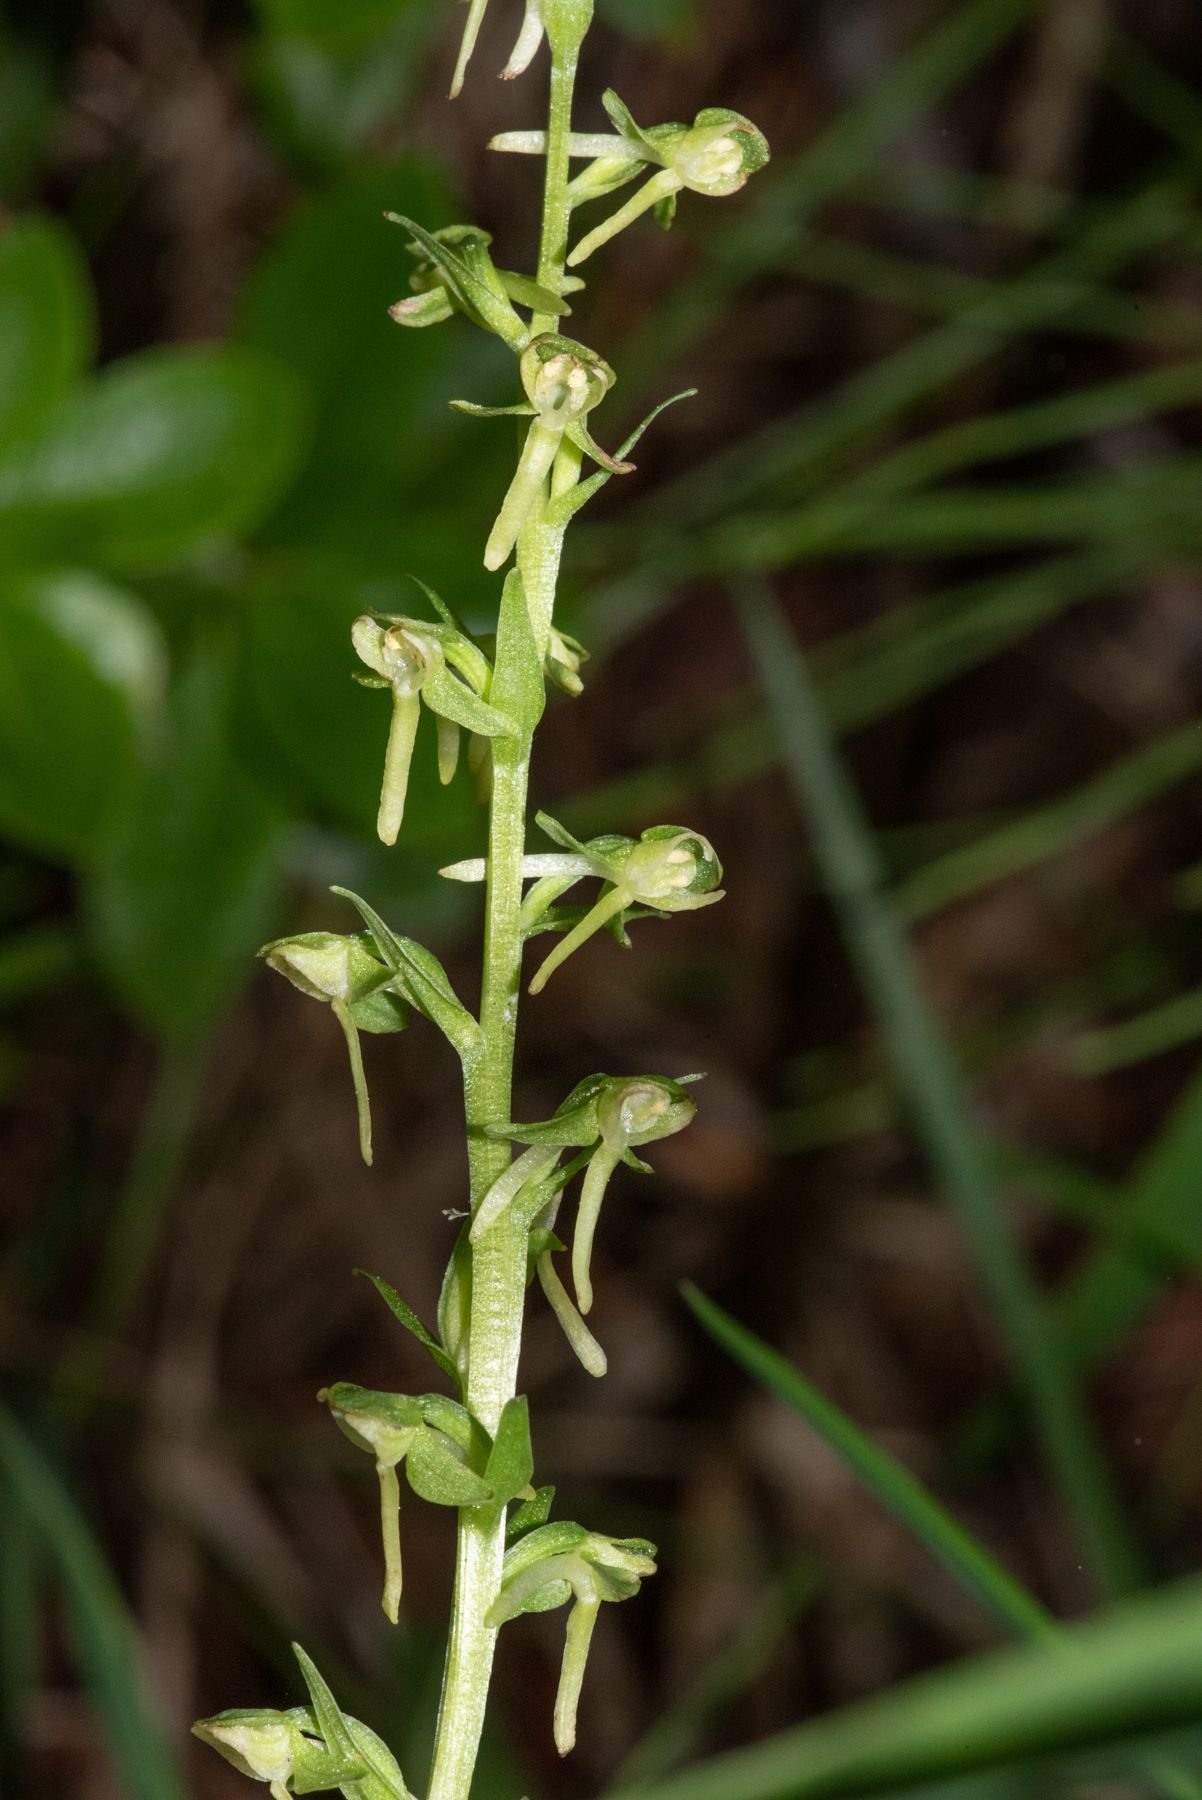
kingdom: Plantae
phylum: Tracheophyta
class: Liliopsida
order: Asparagales
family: Orchidaceae
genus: Platanthera
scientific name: Platanthera sparsiflora
